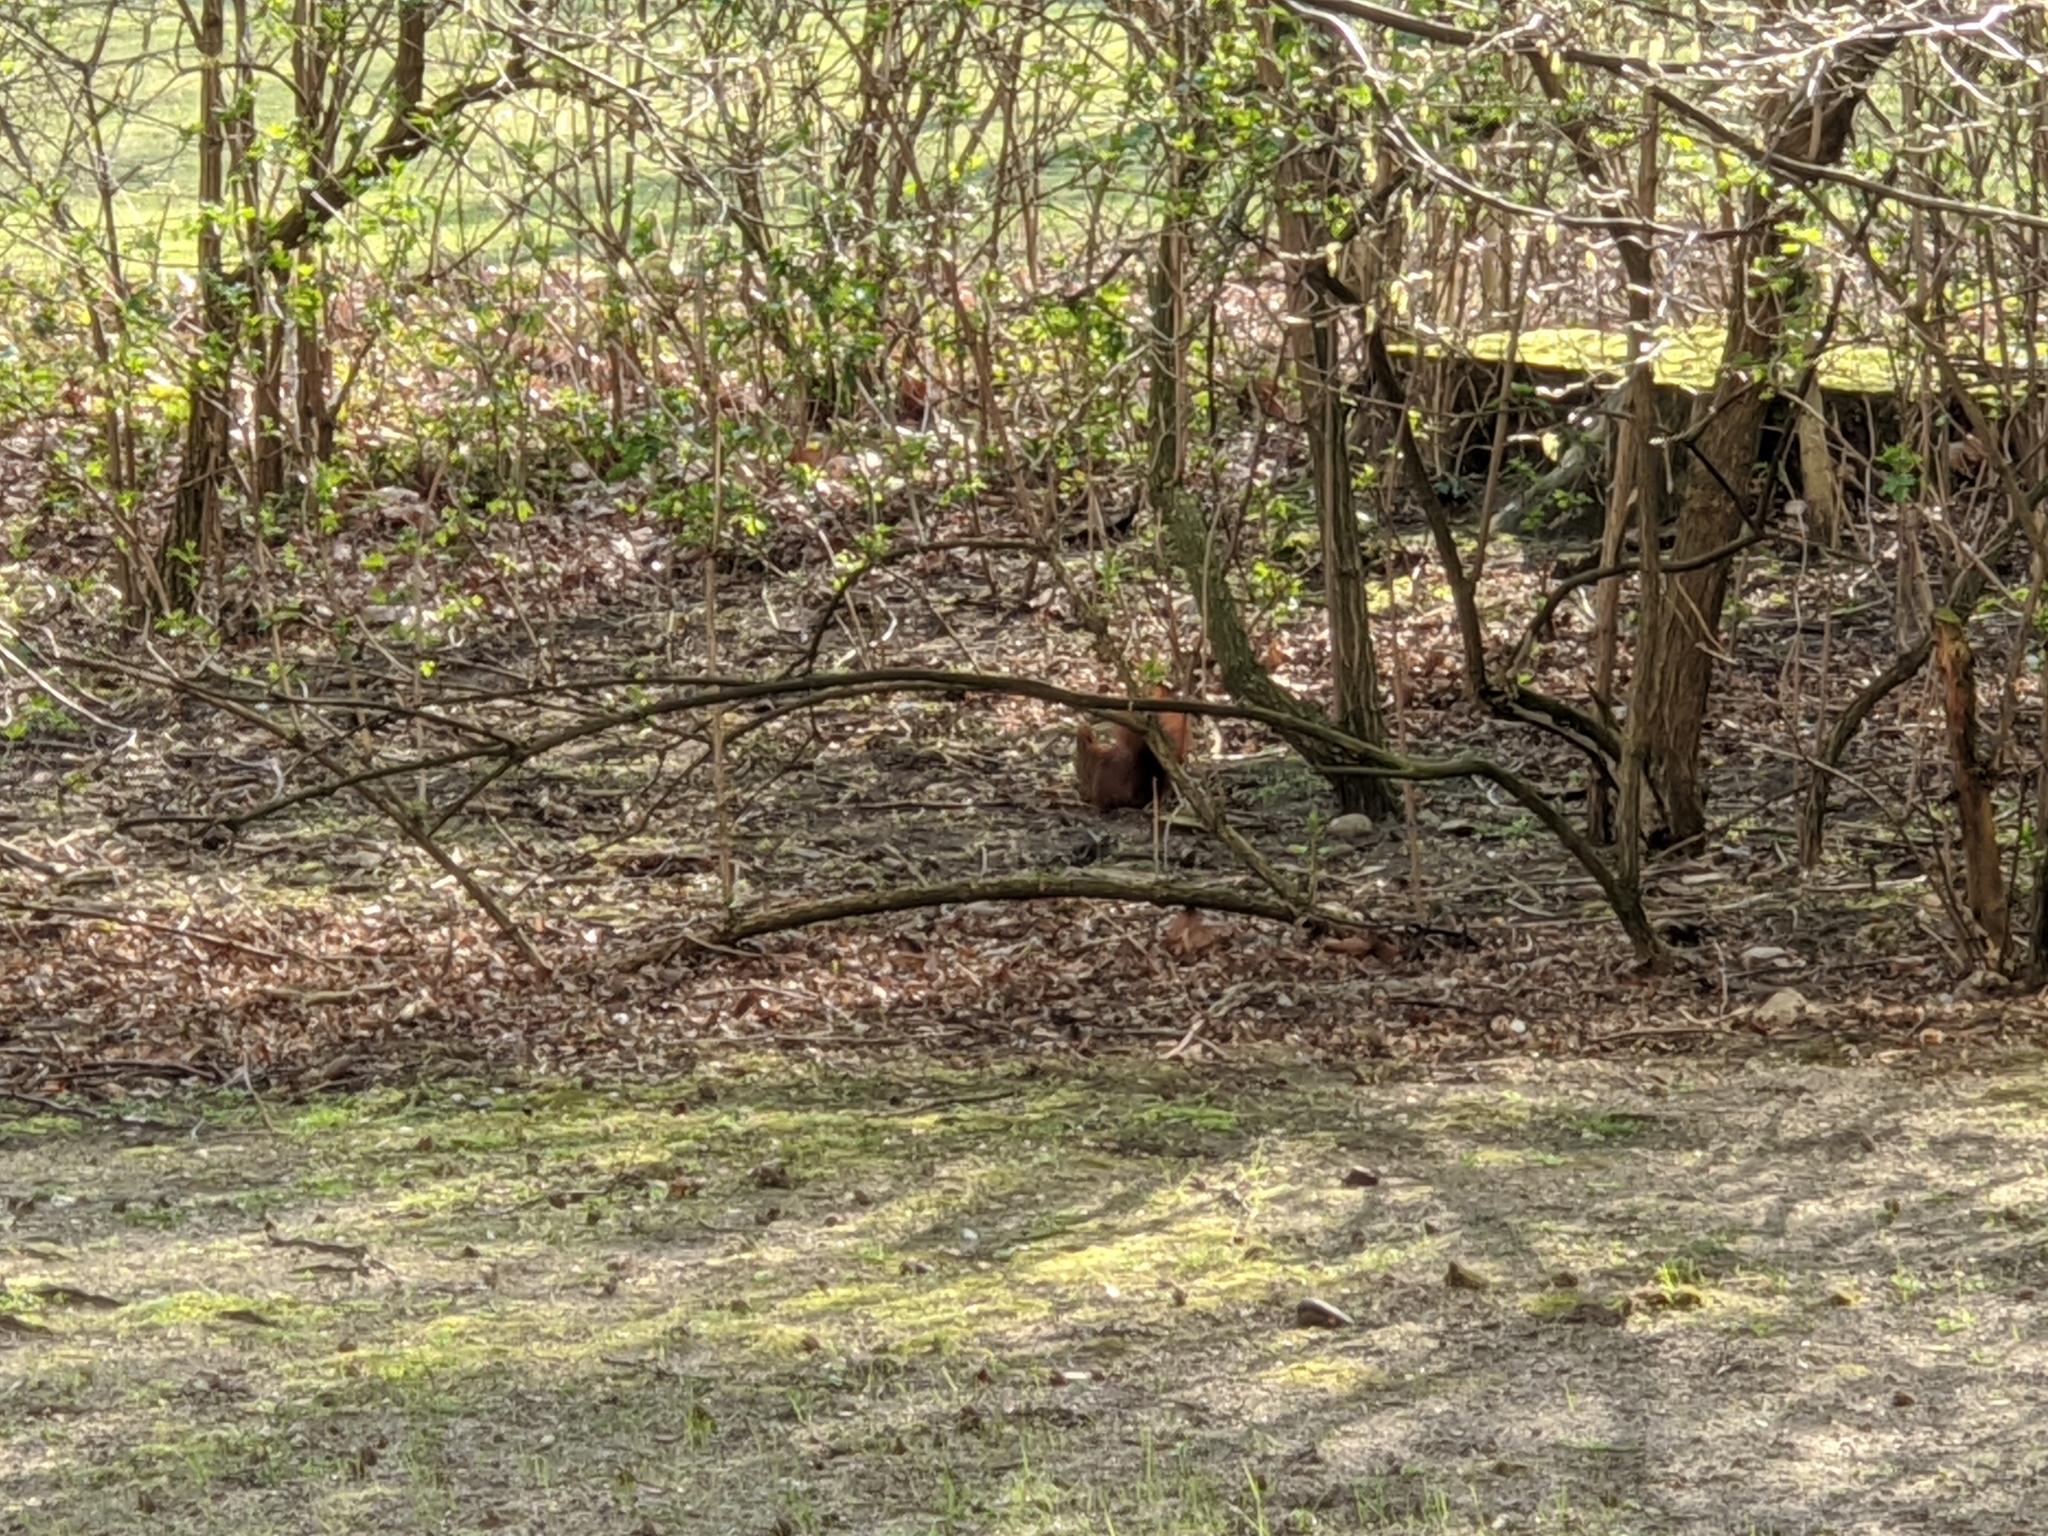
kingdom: Animalia
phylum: Chordata
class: Mammalia
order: Rodentia
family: Sciuridae
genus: Sciurus
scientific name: Sciurus vulgaris
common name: Eurasian red squirrel
